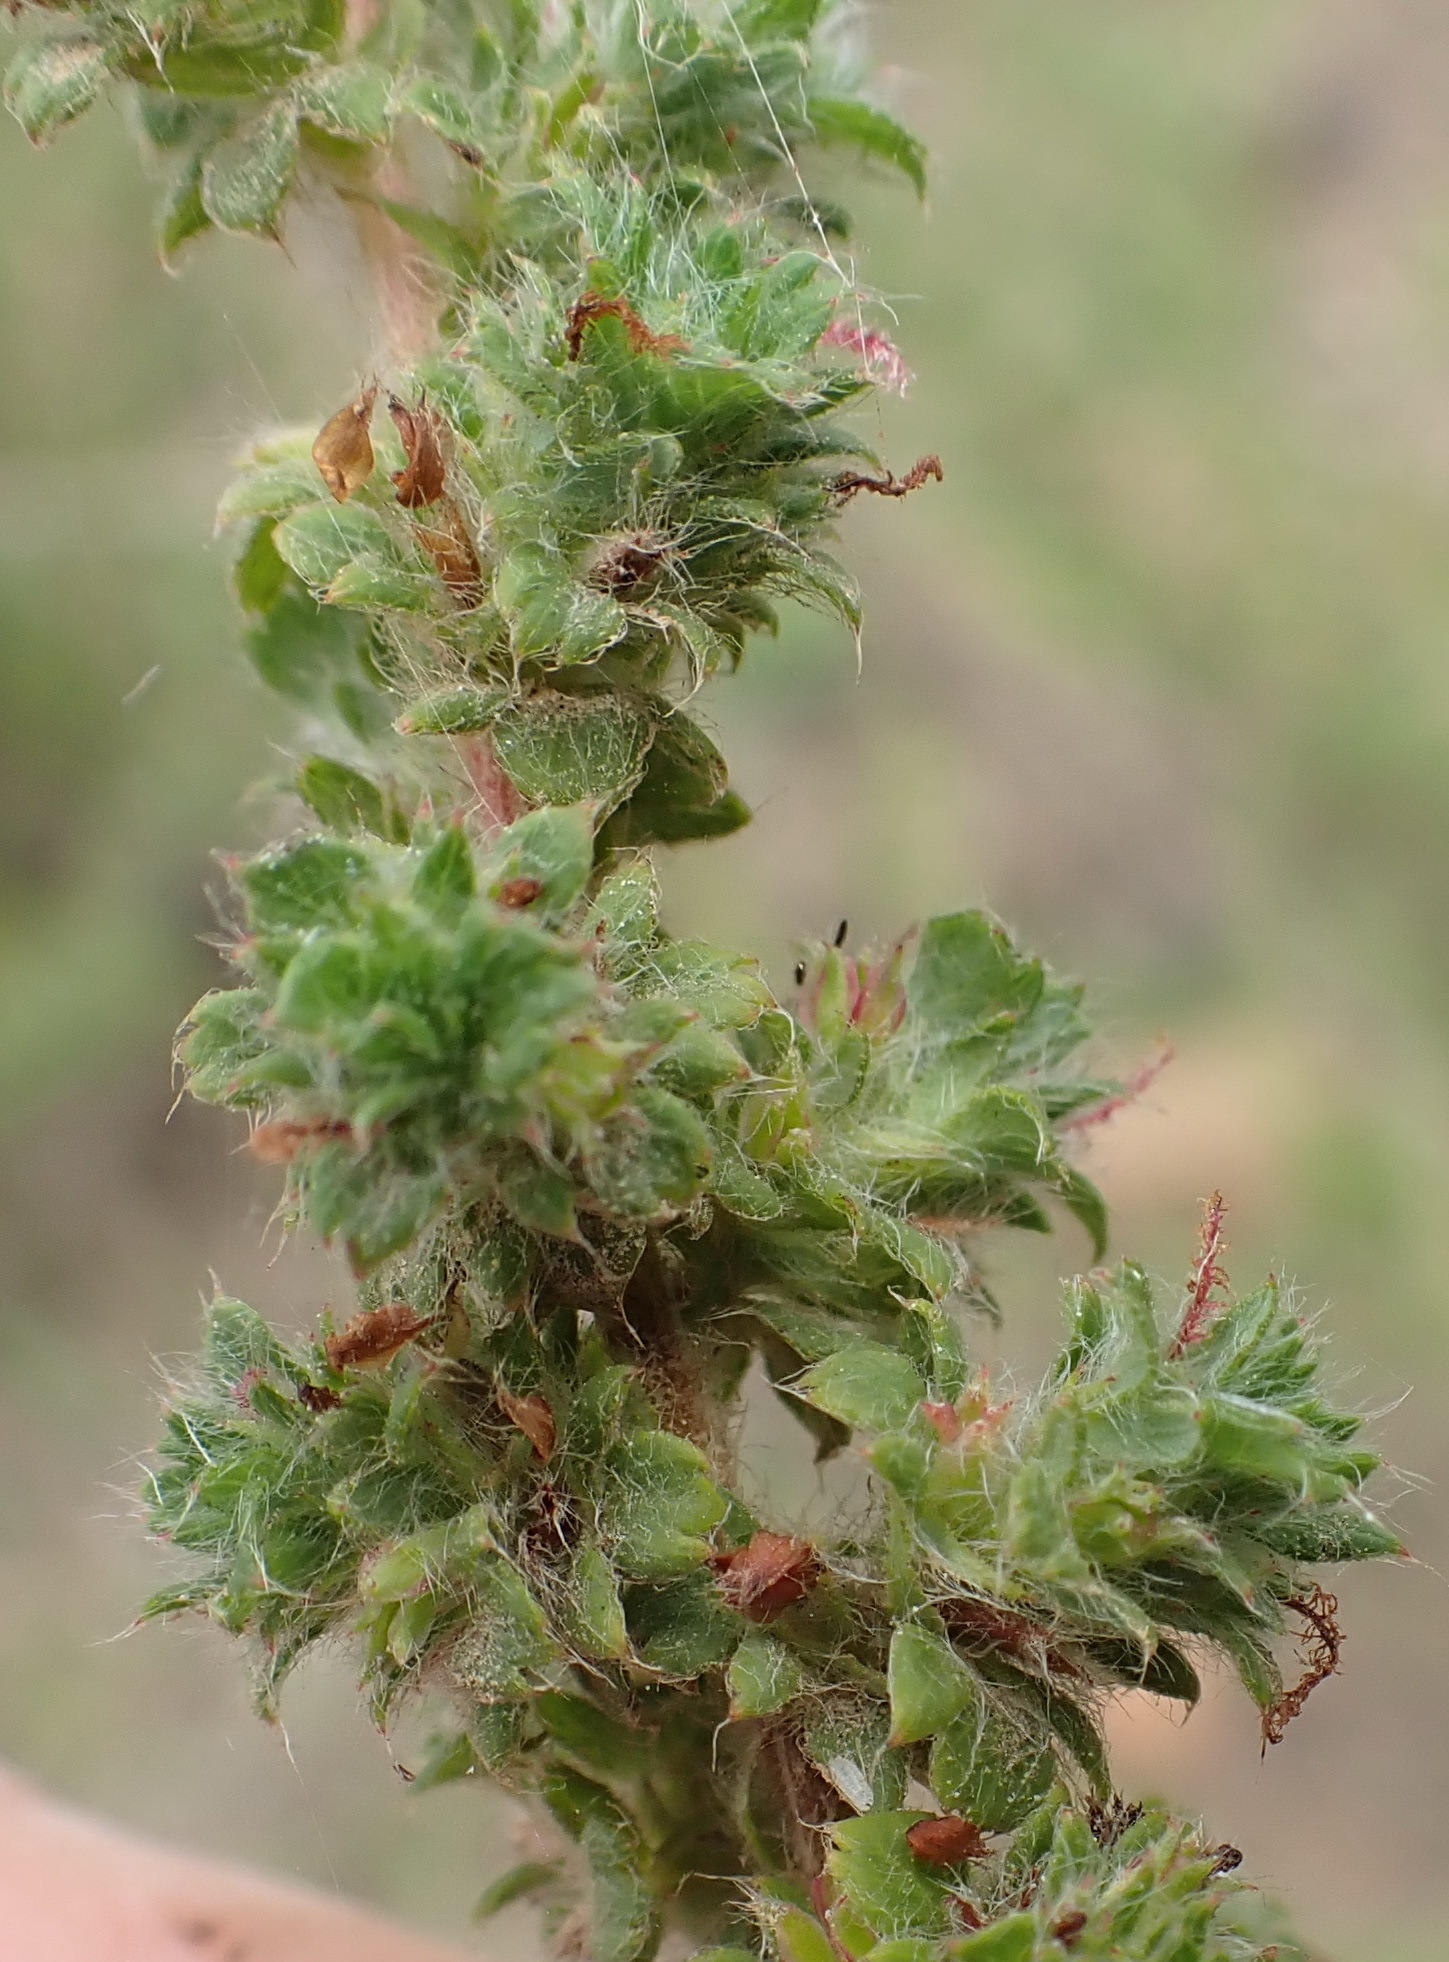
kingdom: Plantae
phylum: Tracheophyta
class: Magnoliopsida
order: Rosales
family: Rosaceae
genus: Cliffortia
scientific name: Cliffortia filicaulis
